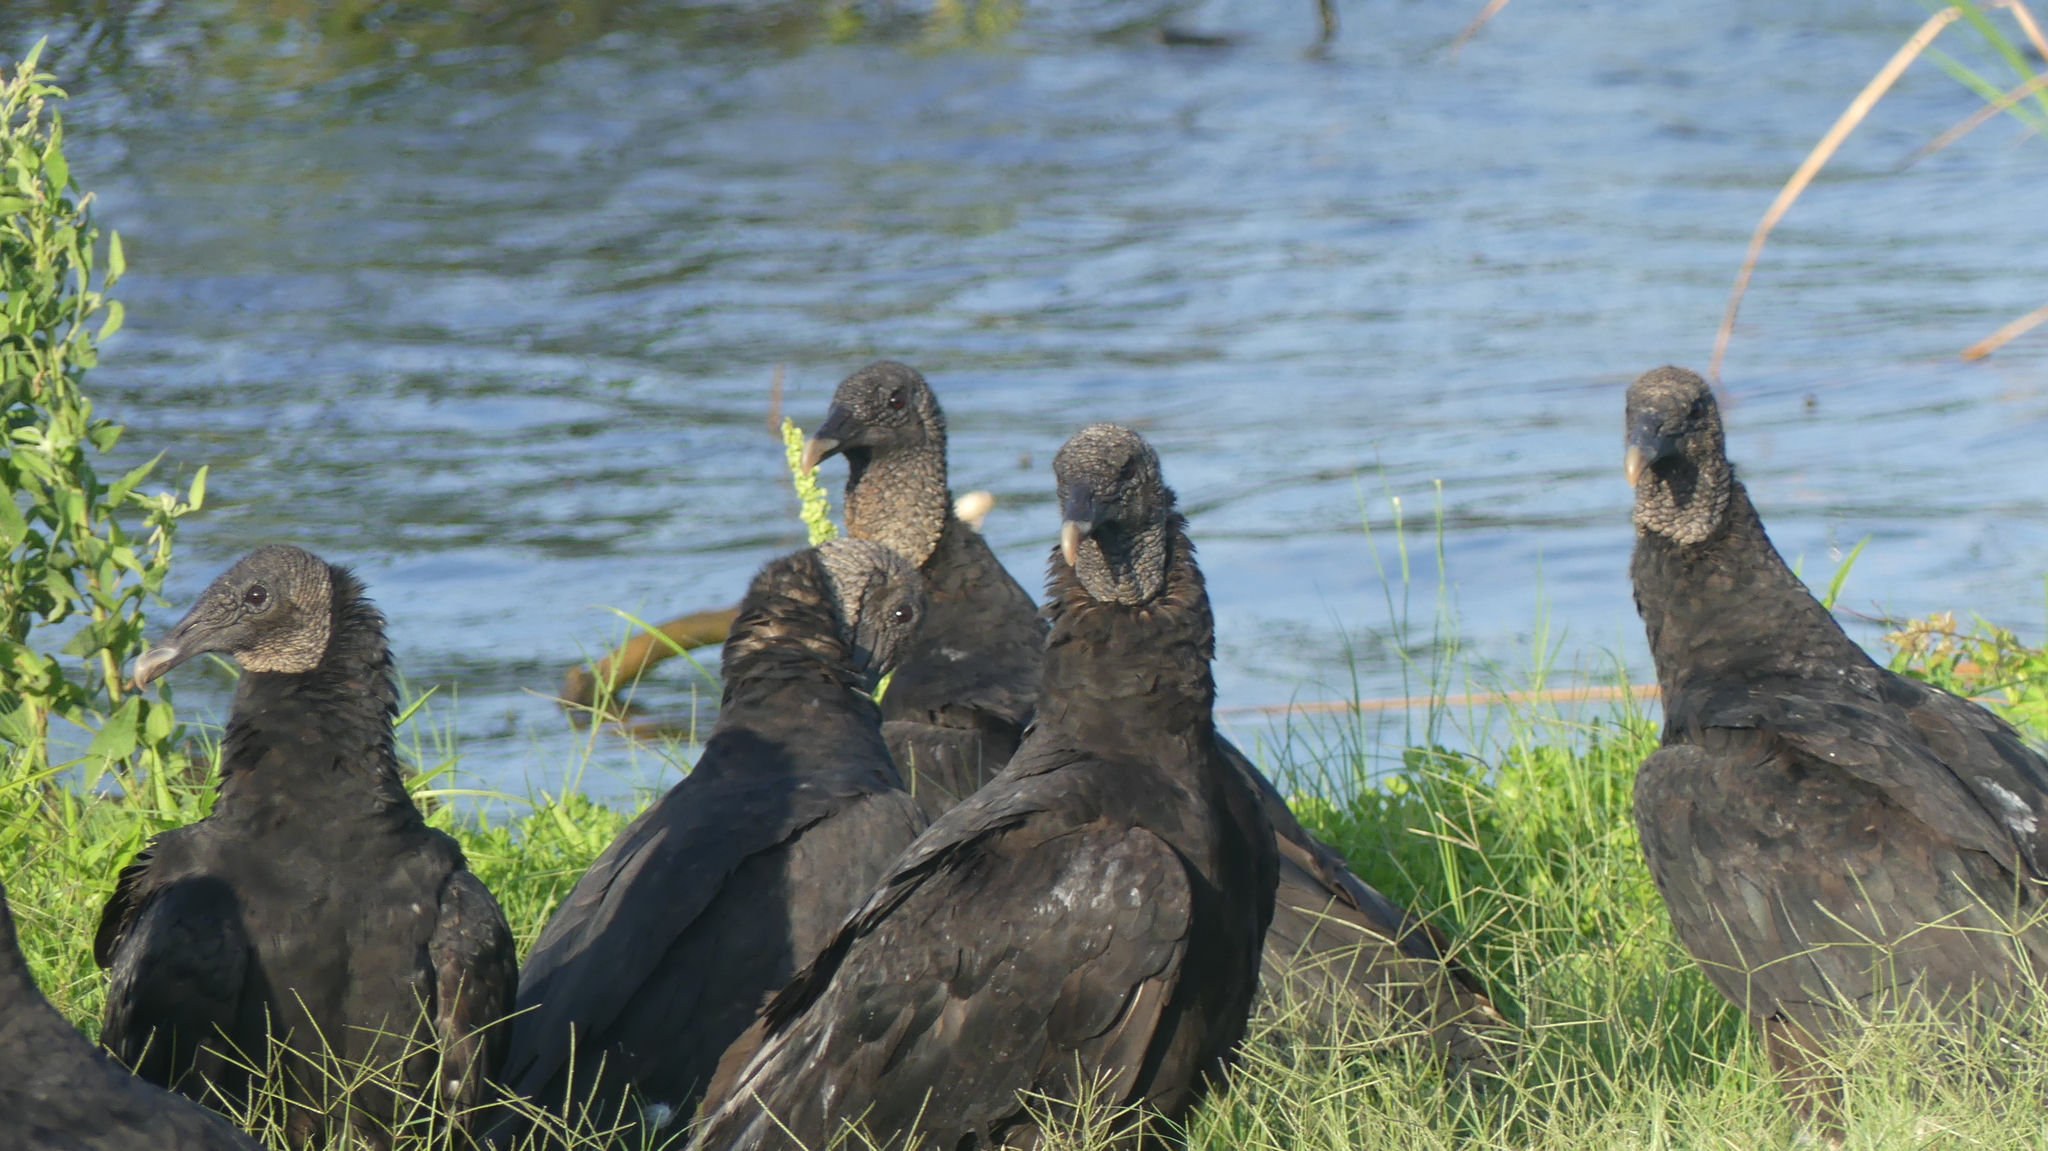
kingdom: Animalia
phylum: Chordata
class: Aves
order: Accipitriformes
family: Cathartidae
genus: Coragyps
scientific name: Coragyps atratus
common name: Black vulture
